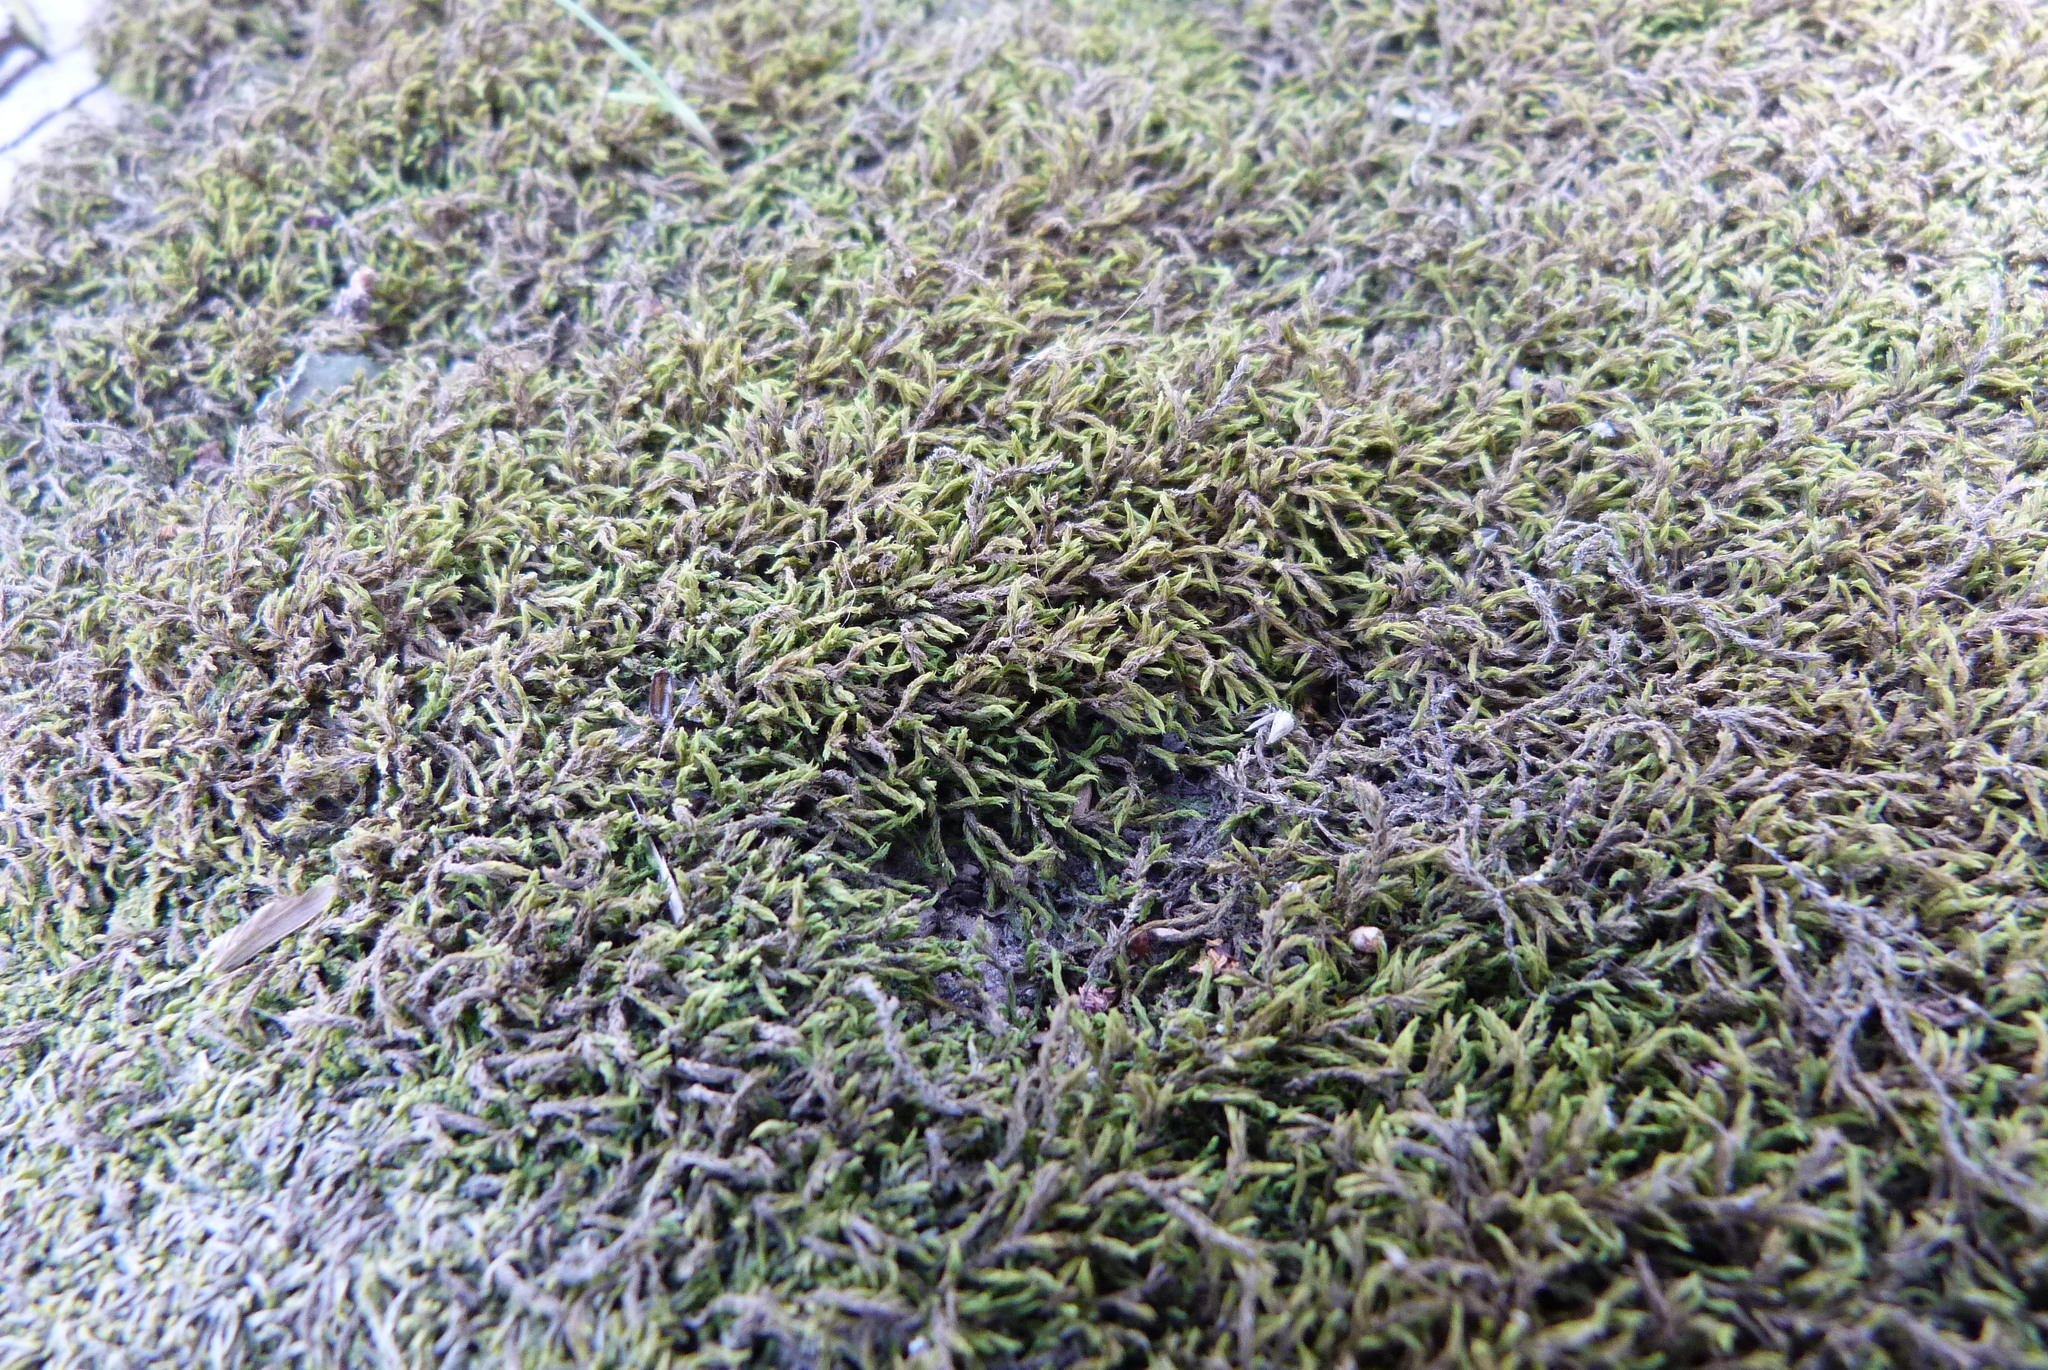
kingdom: Plantae
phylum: Bryophyta
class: Bryopsida
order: Pottiales
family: Pottiaceae
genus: Triquetrella
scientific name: Triquetrella papillata
